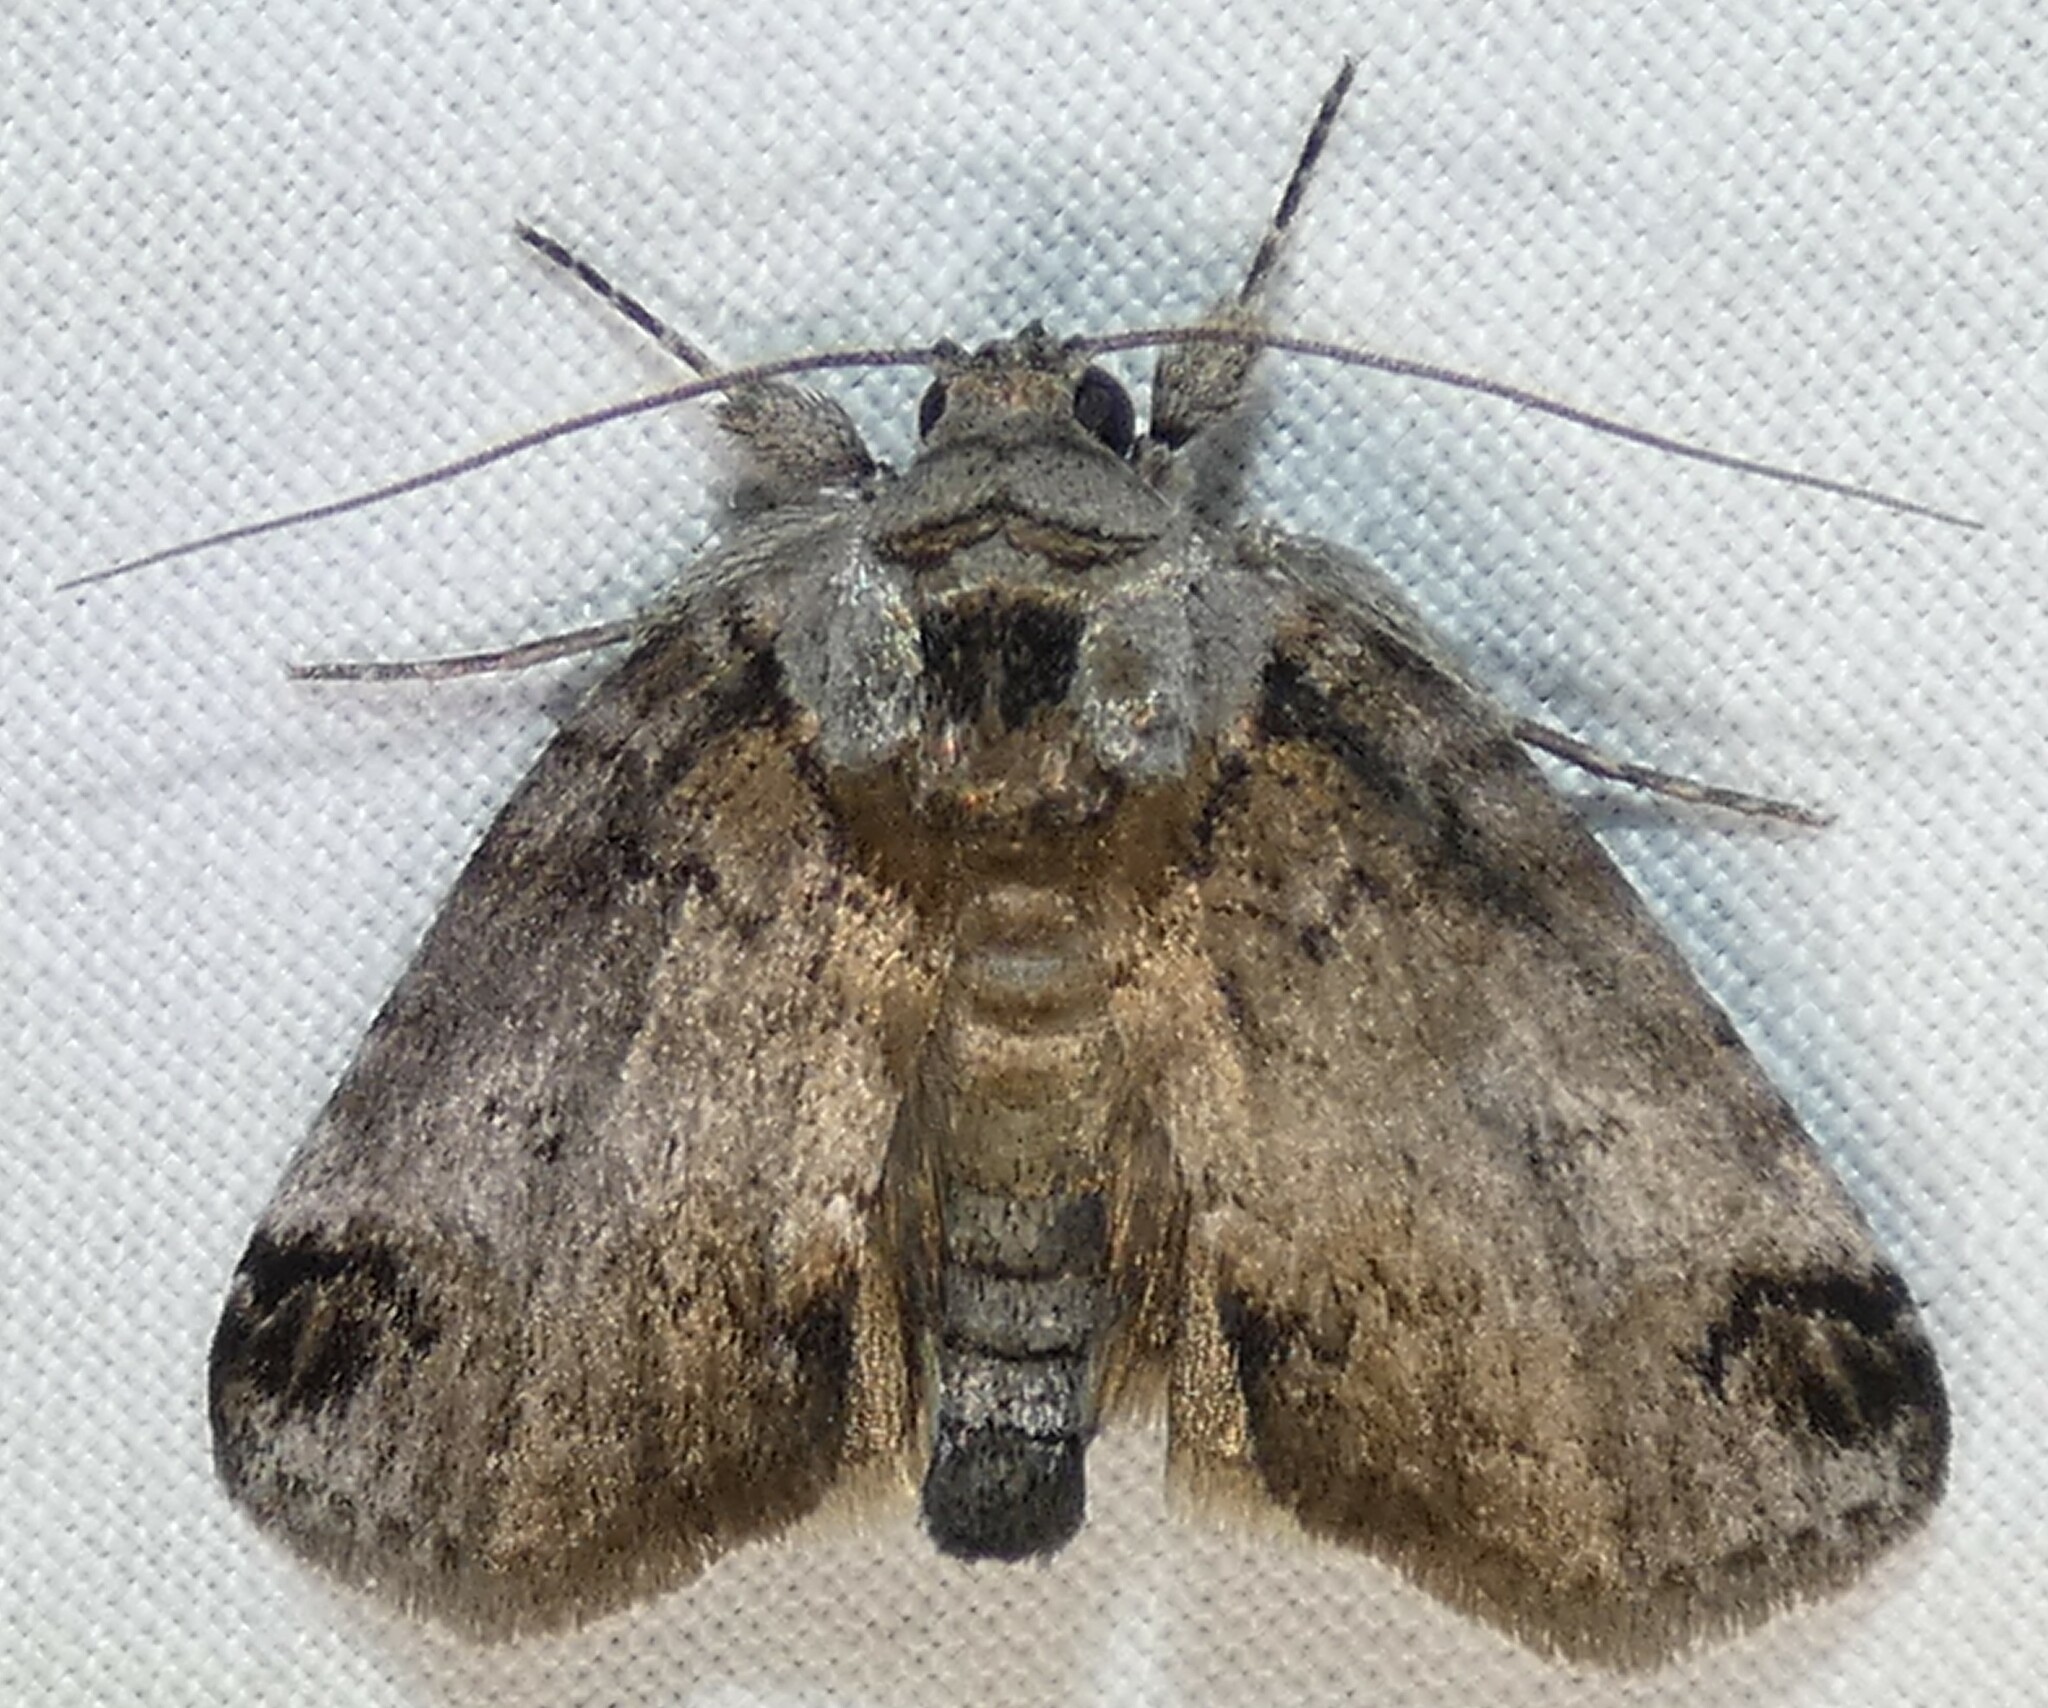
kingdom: Animalia
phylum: Arthropoda
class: Insecta
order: Lepidoptera
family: Nolidae
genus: Baileya
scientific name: Baileya dormitans
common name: Sleeping baileya moth
